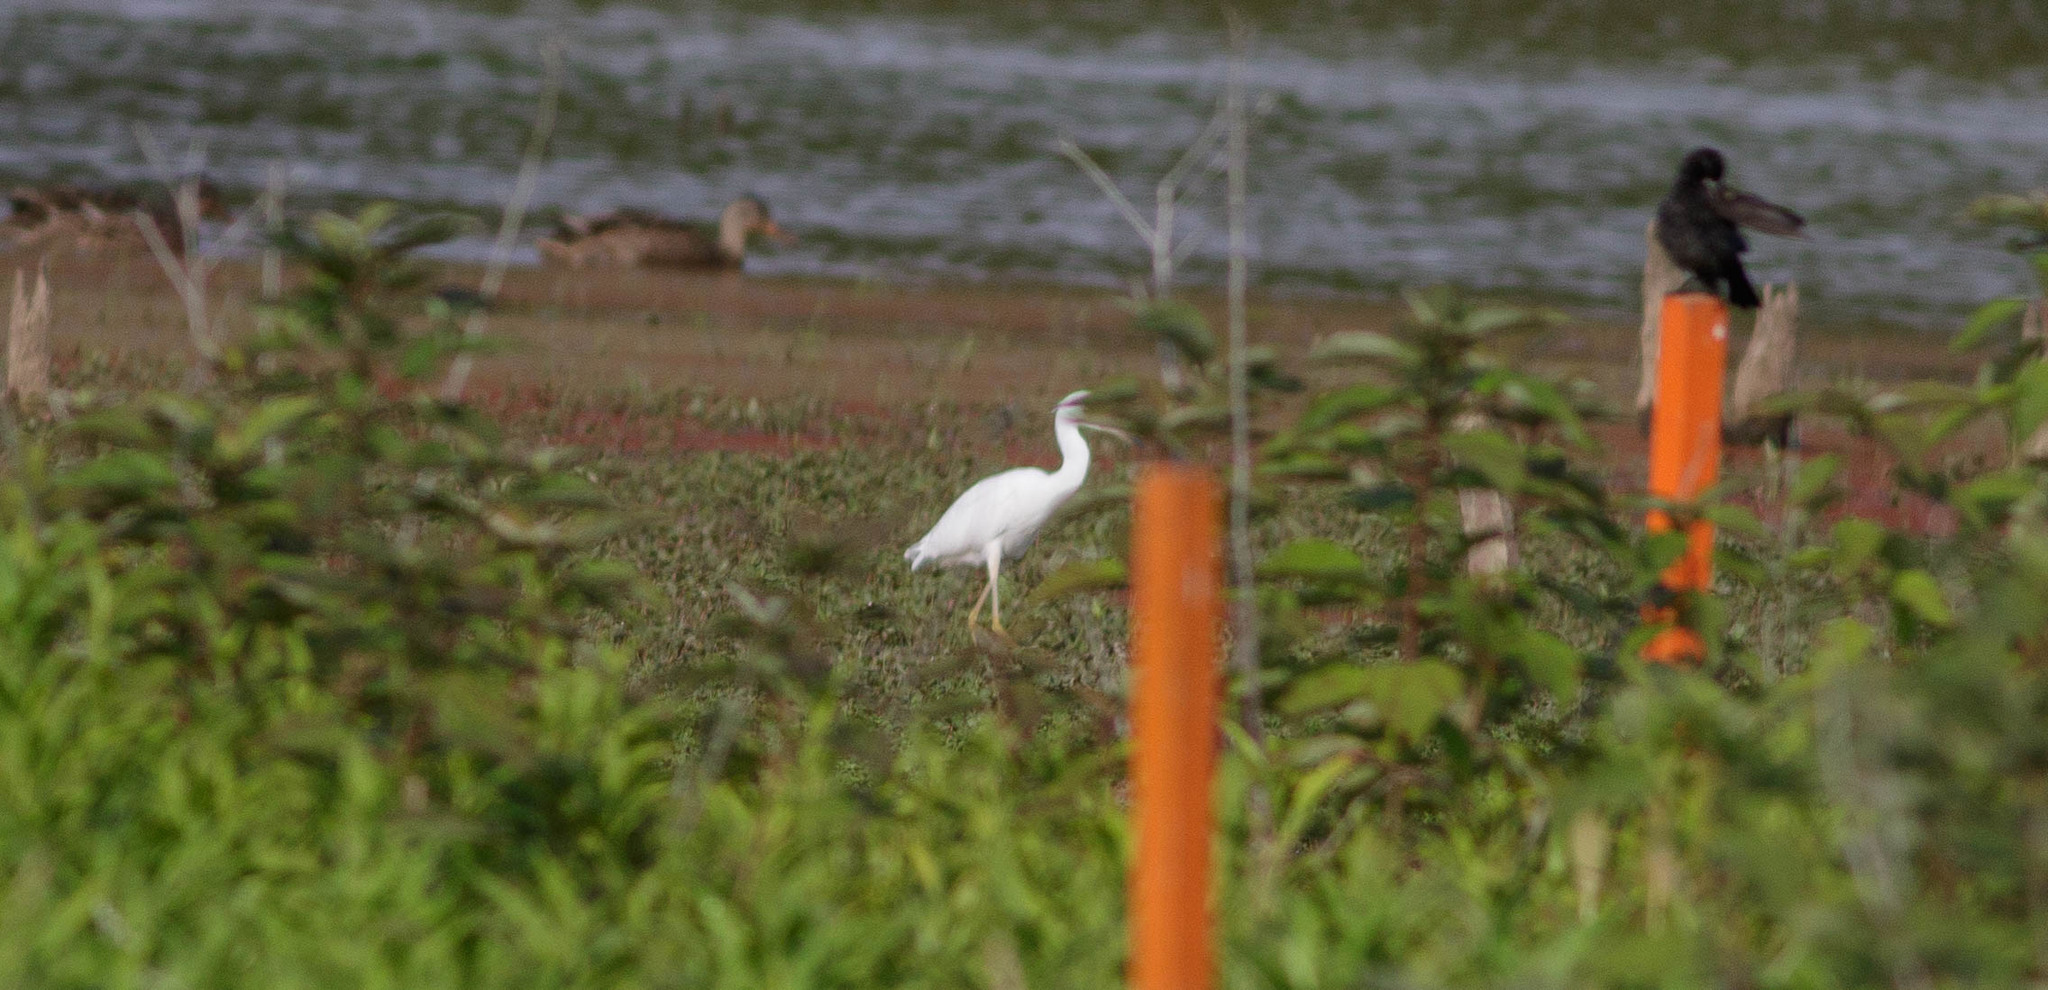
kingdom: Animalia
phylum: Chordata
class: Aves
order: Pelecaniformes
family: Ardeidae
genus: Egretta
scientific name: Egretta caerulea
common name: Little blue heron
